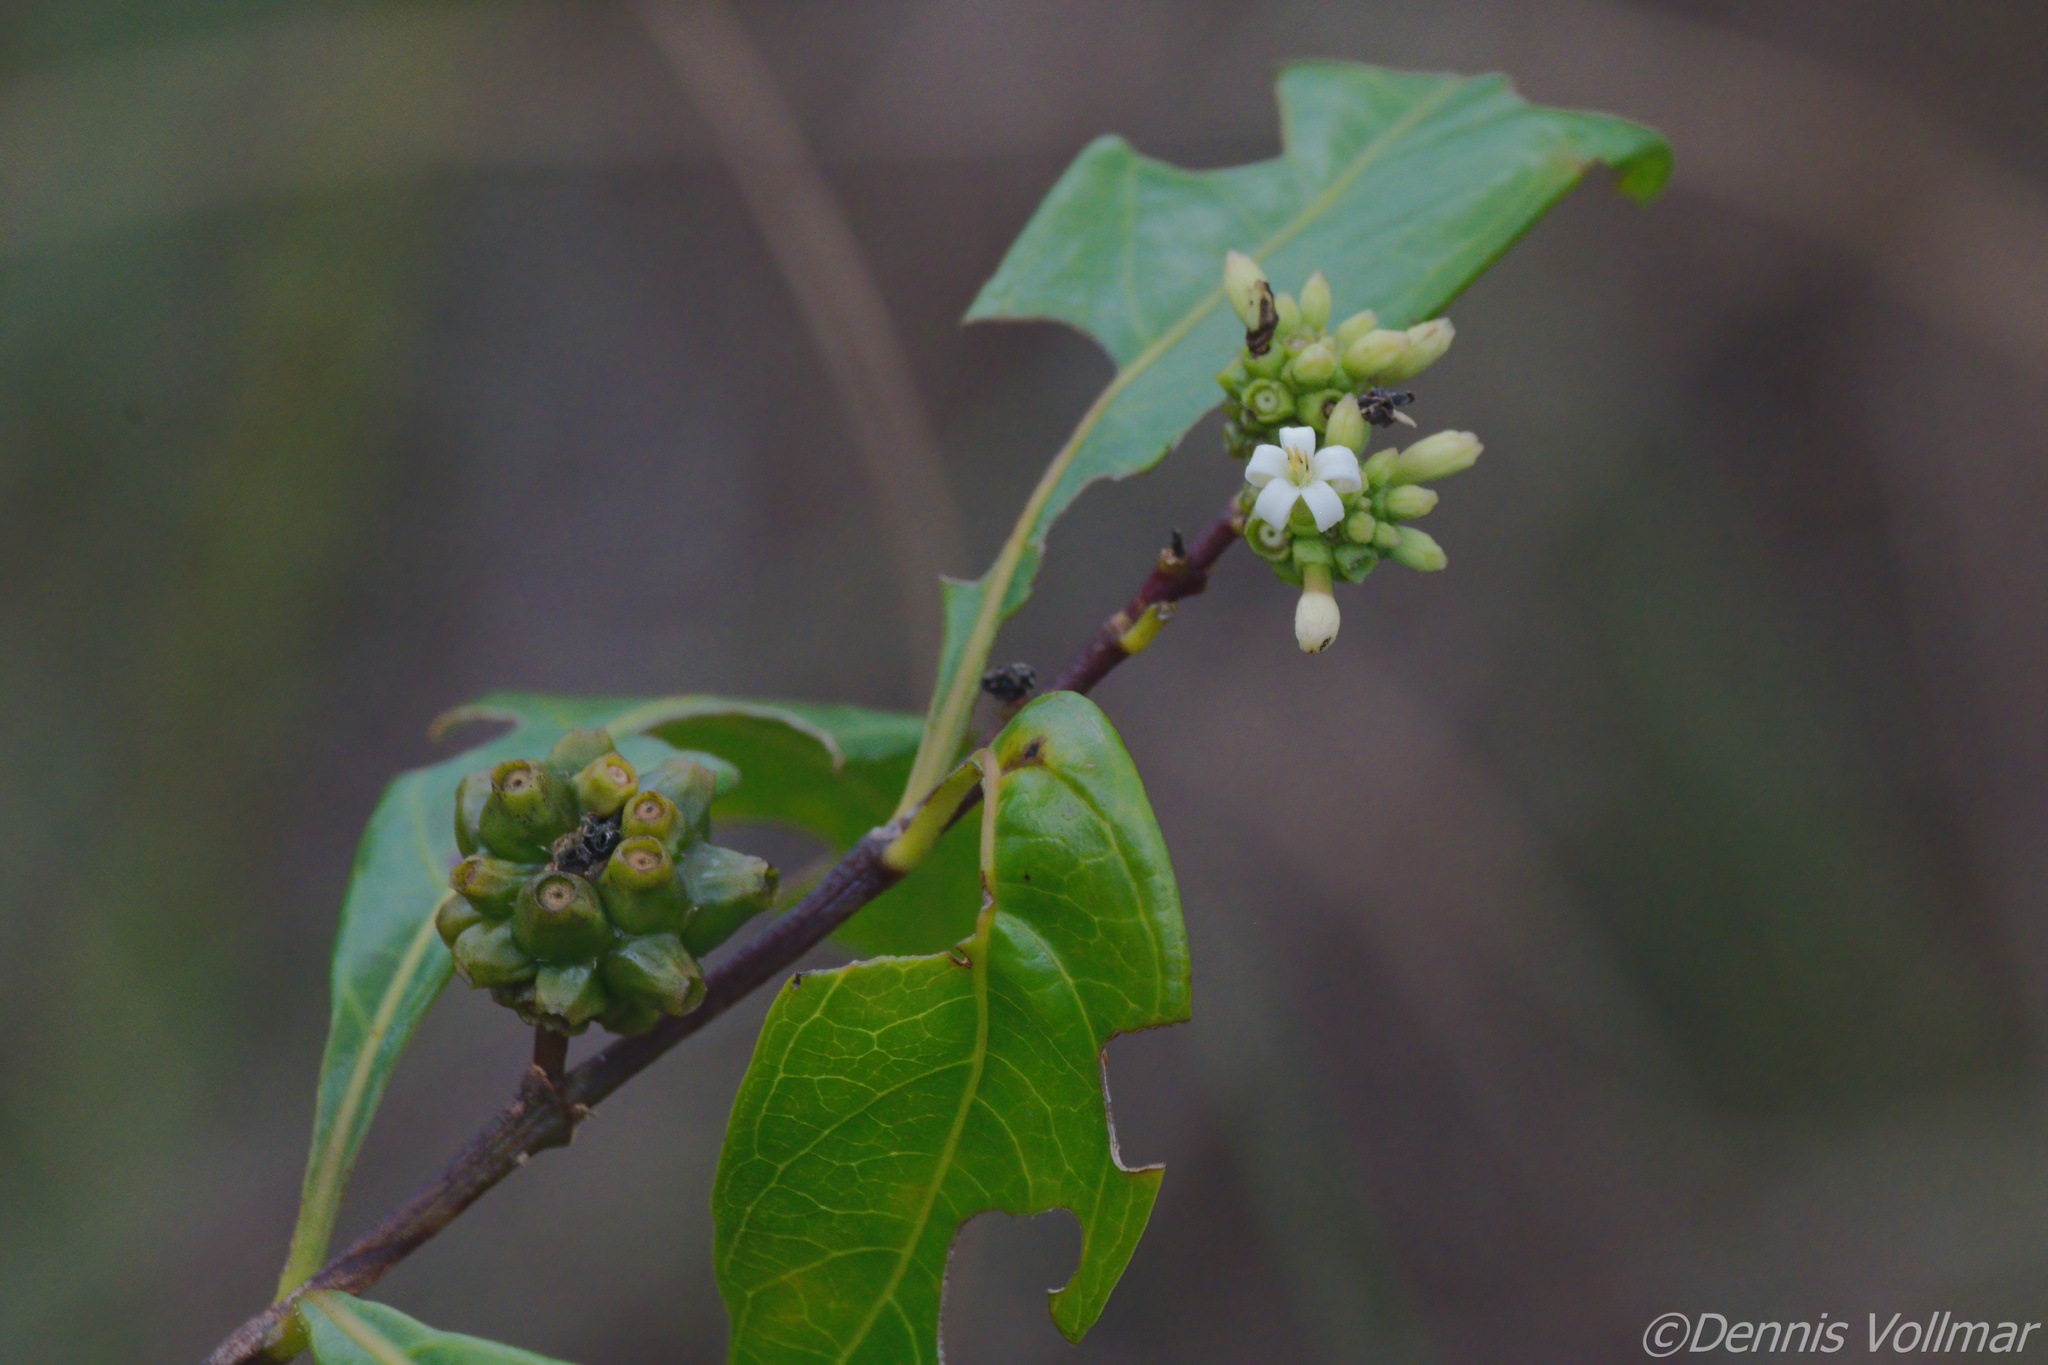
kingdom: Plantae
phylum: Tracheophyta
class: Magnoliopsida
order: Gentianales
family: Rubiaceae
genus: Morinda
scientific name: Morinda royoc
